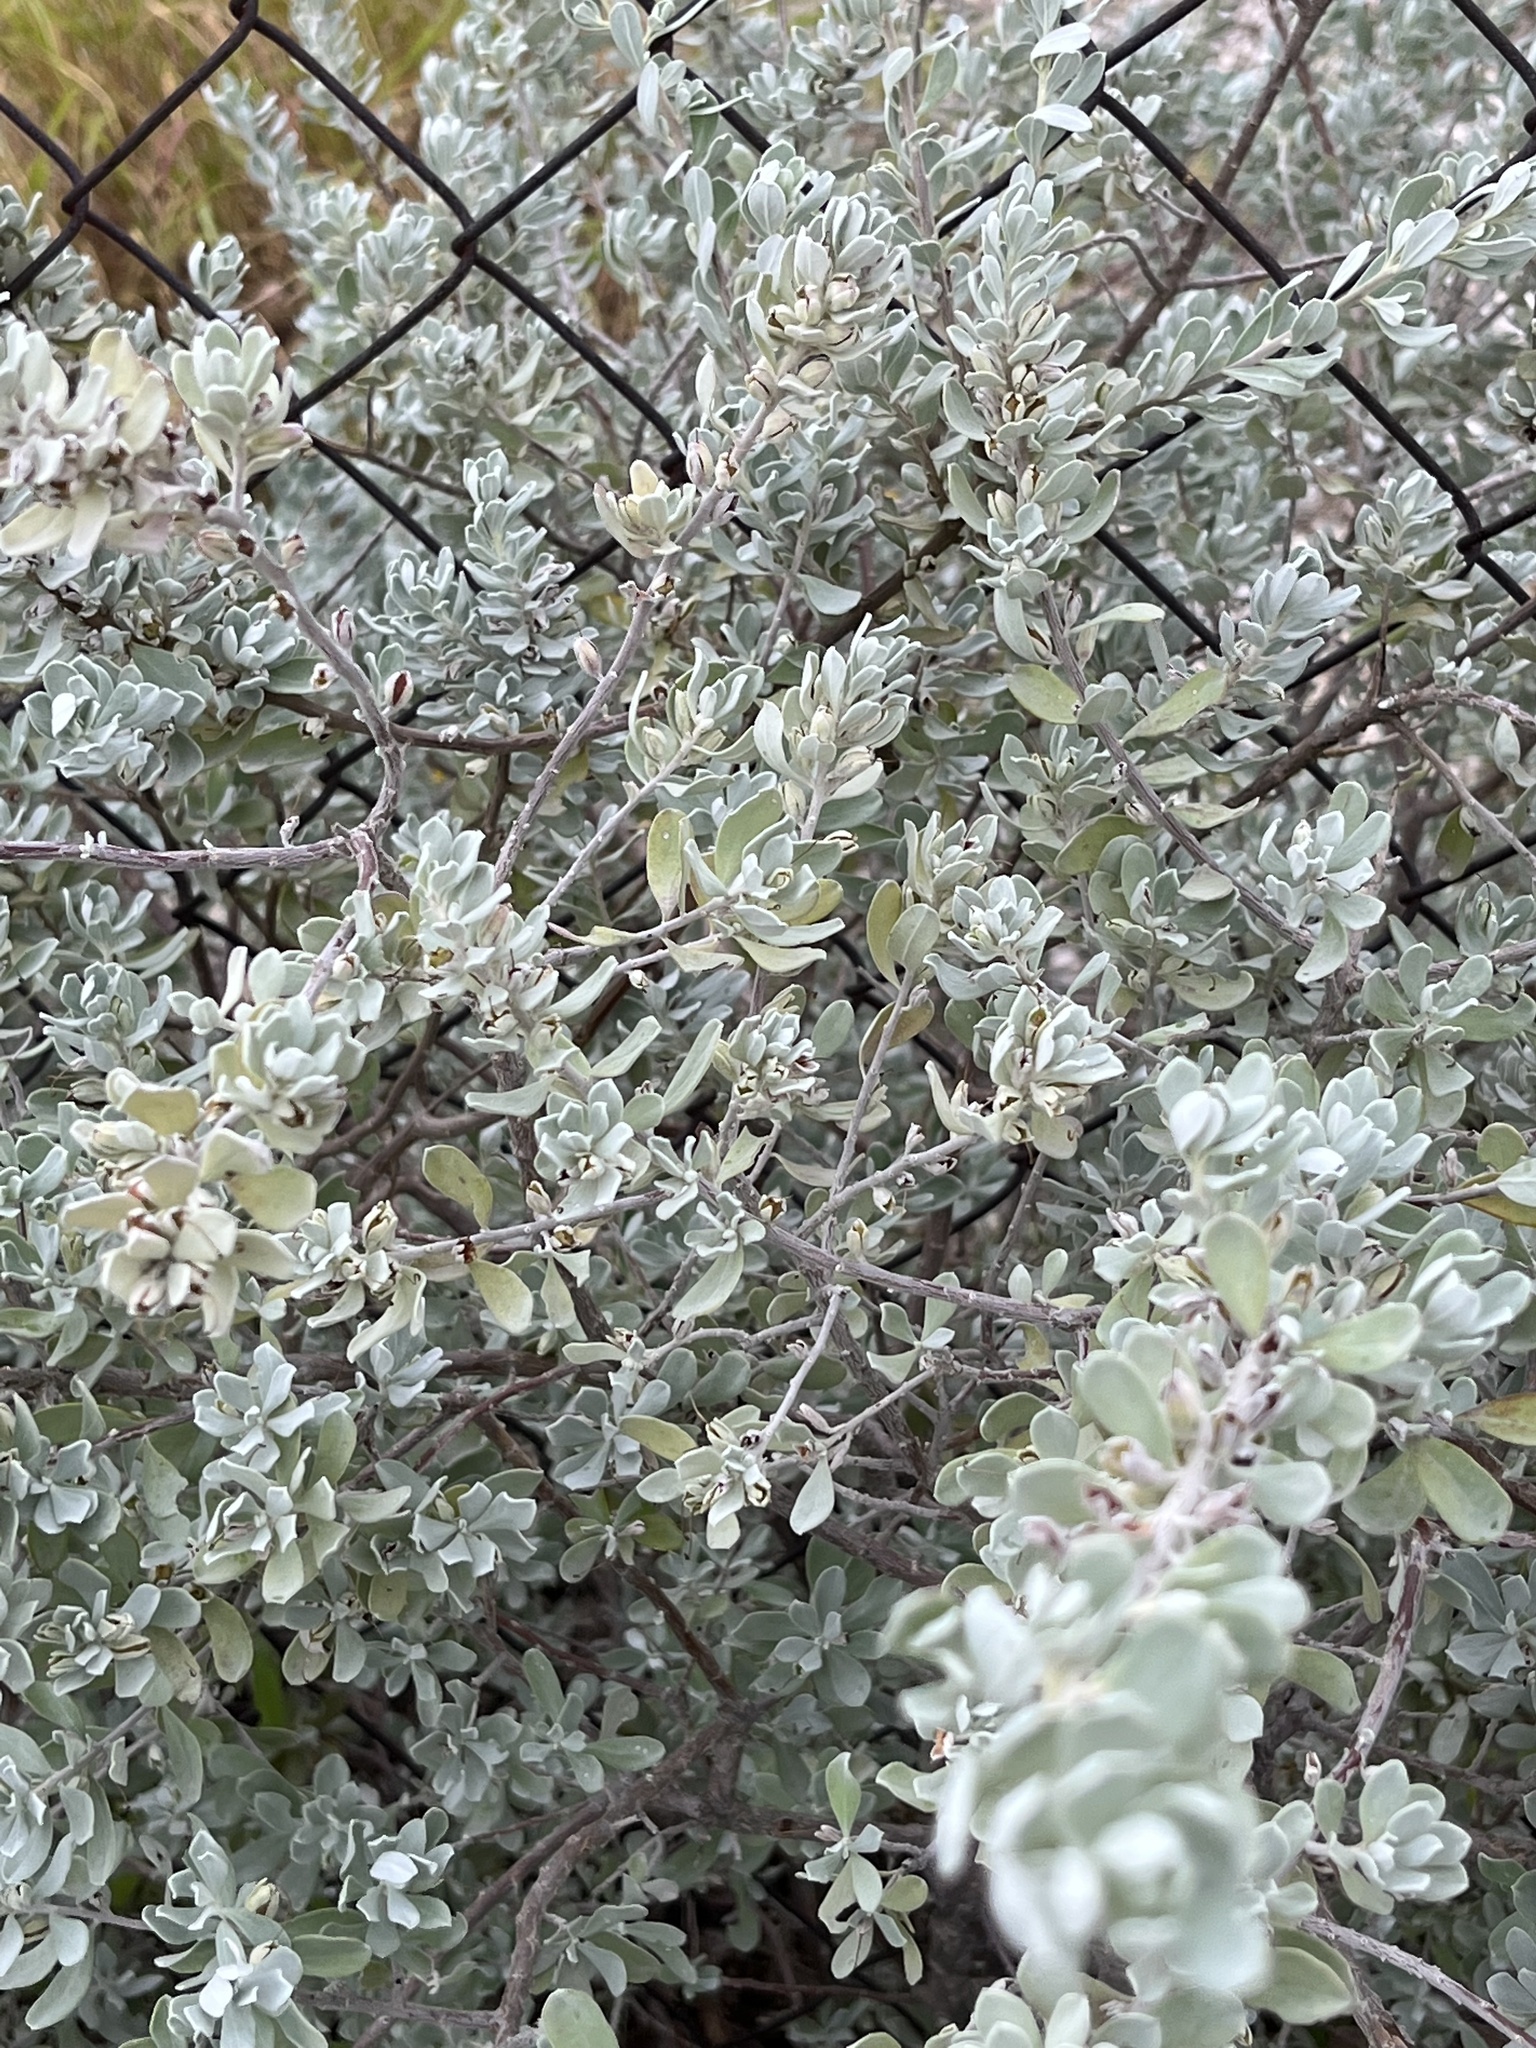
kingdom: Plantae
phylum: Tracheophyta
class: Magnoliopsida
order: Lamiales
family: Scrophulariaceae
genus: Leucophyllum
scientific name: Leucophyllum frutescens
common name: Texas silverleaf
